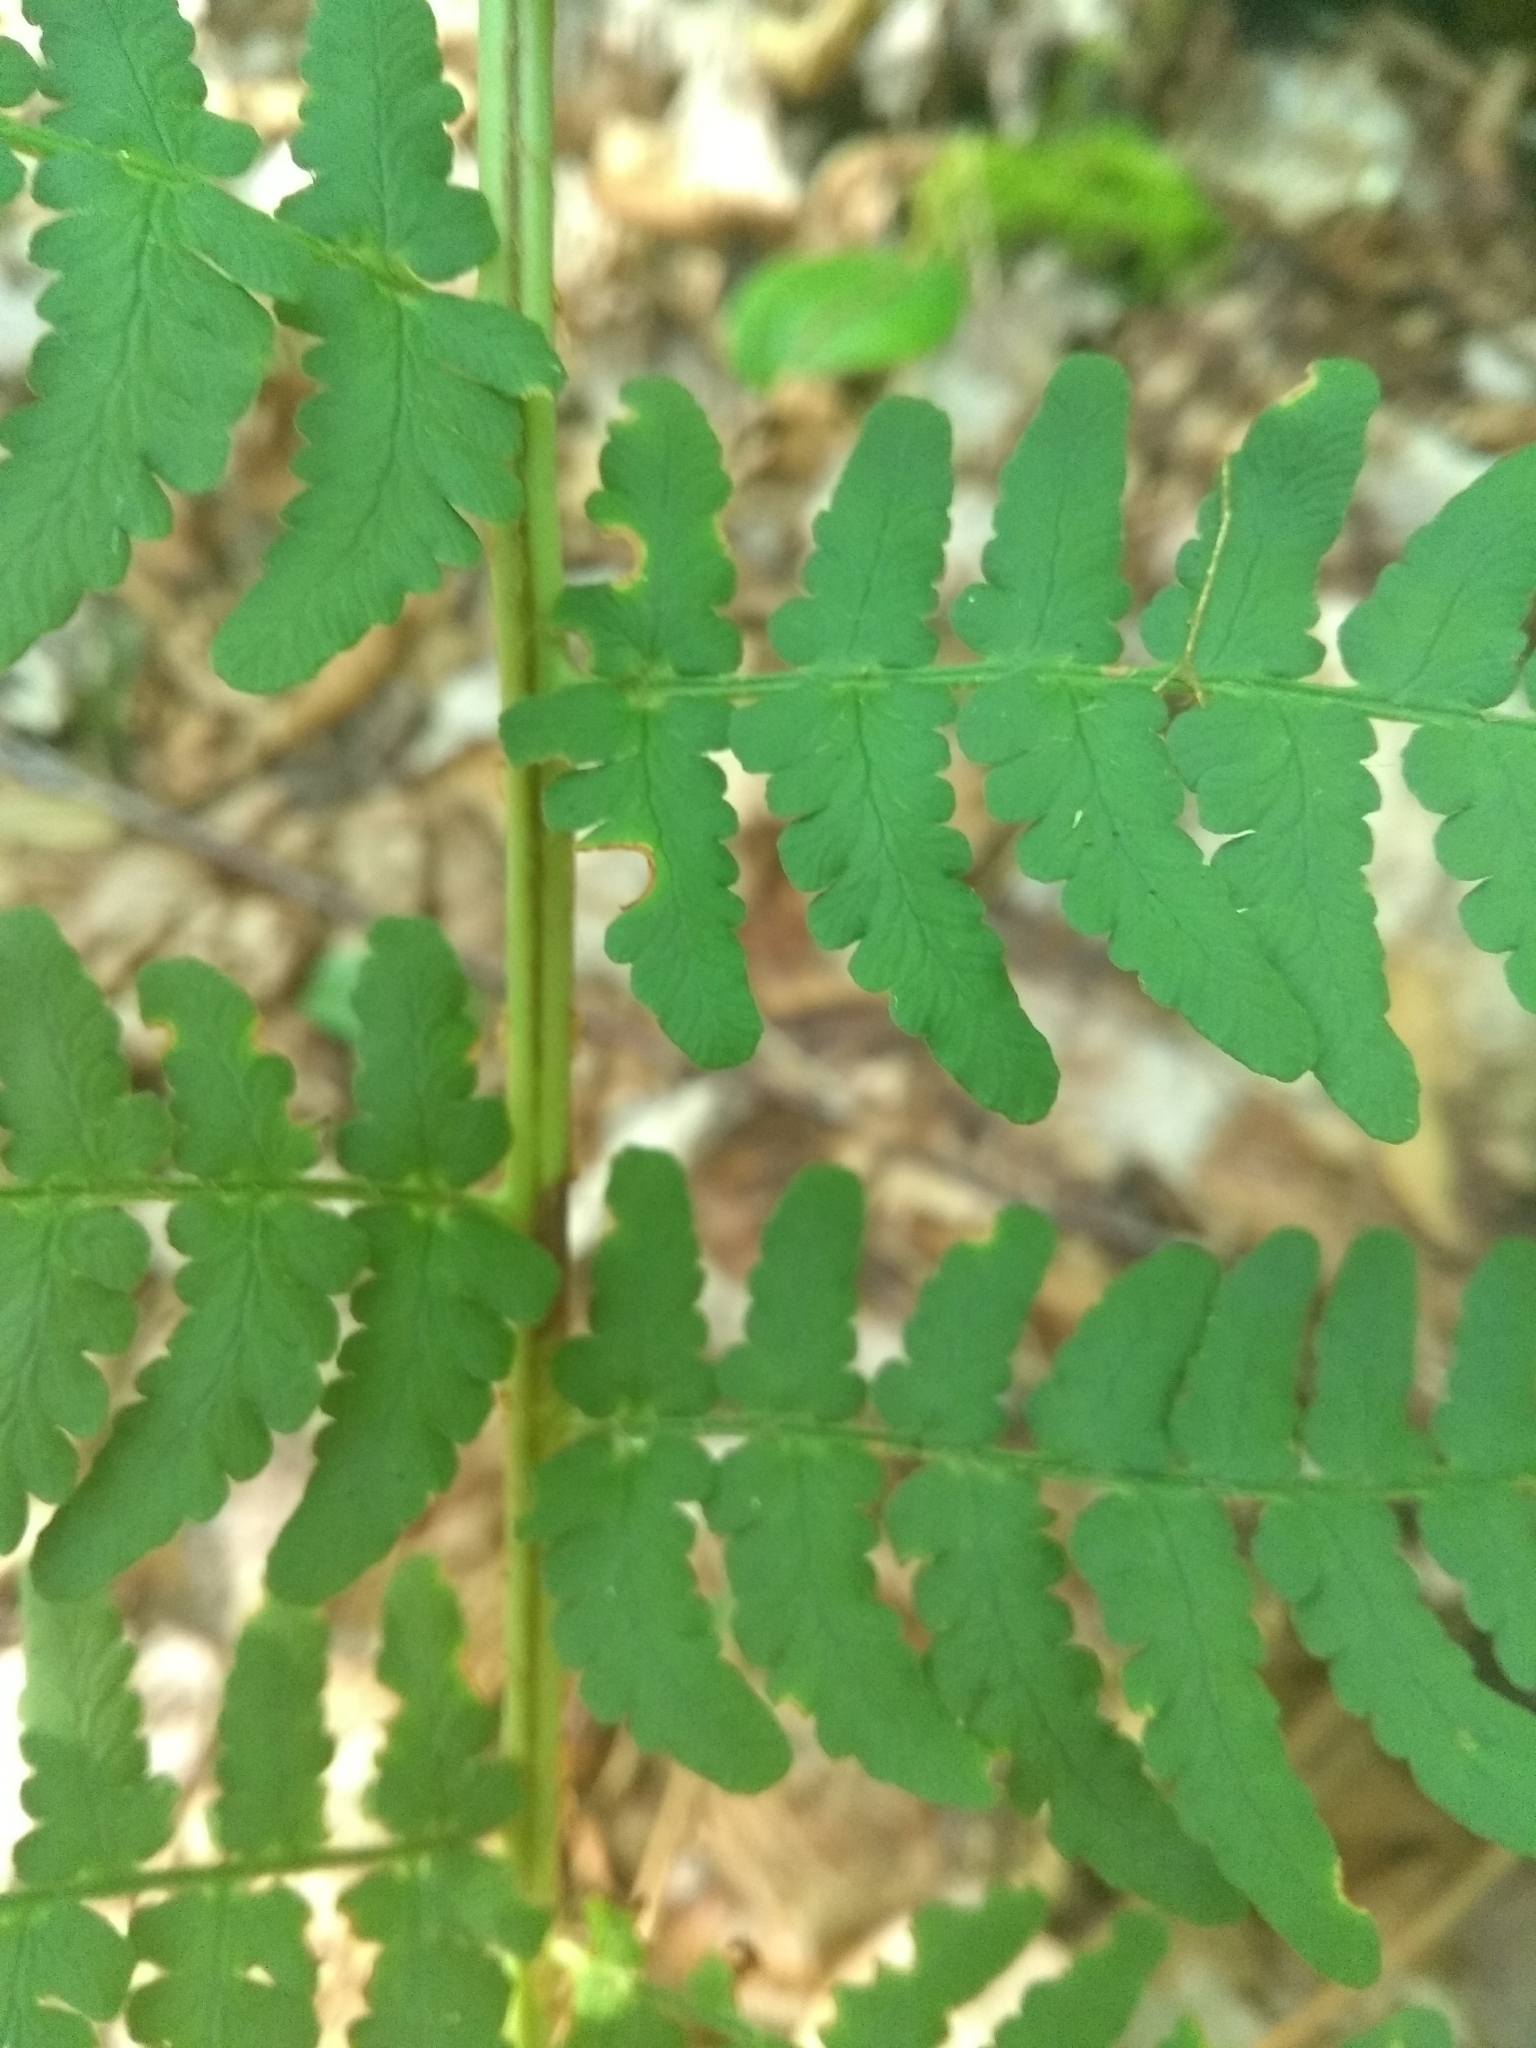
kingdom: Plantae
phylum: Tracheophyta
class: Polypodiopsida
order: Polypodiales
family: Dryopteridaceae
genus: Dryopteris
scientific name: Dryopteris marginalis
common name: Marginal wood fern
